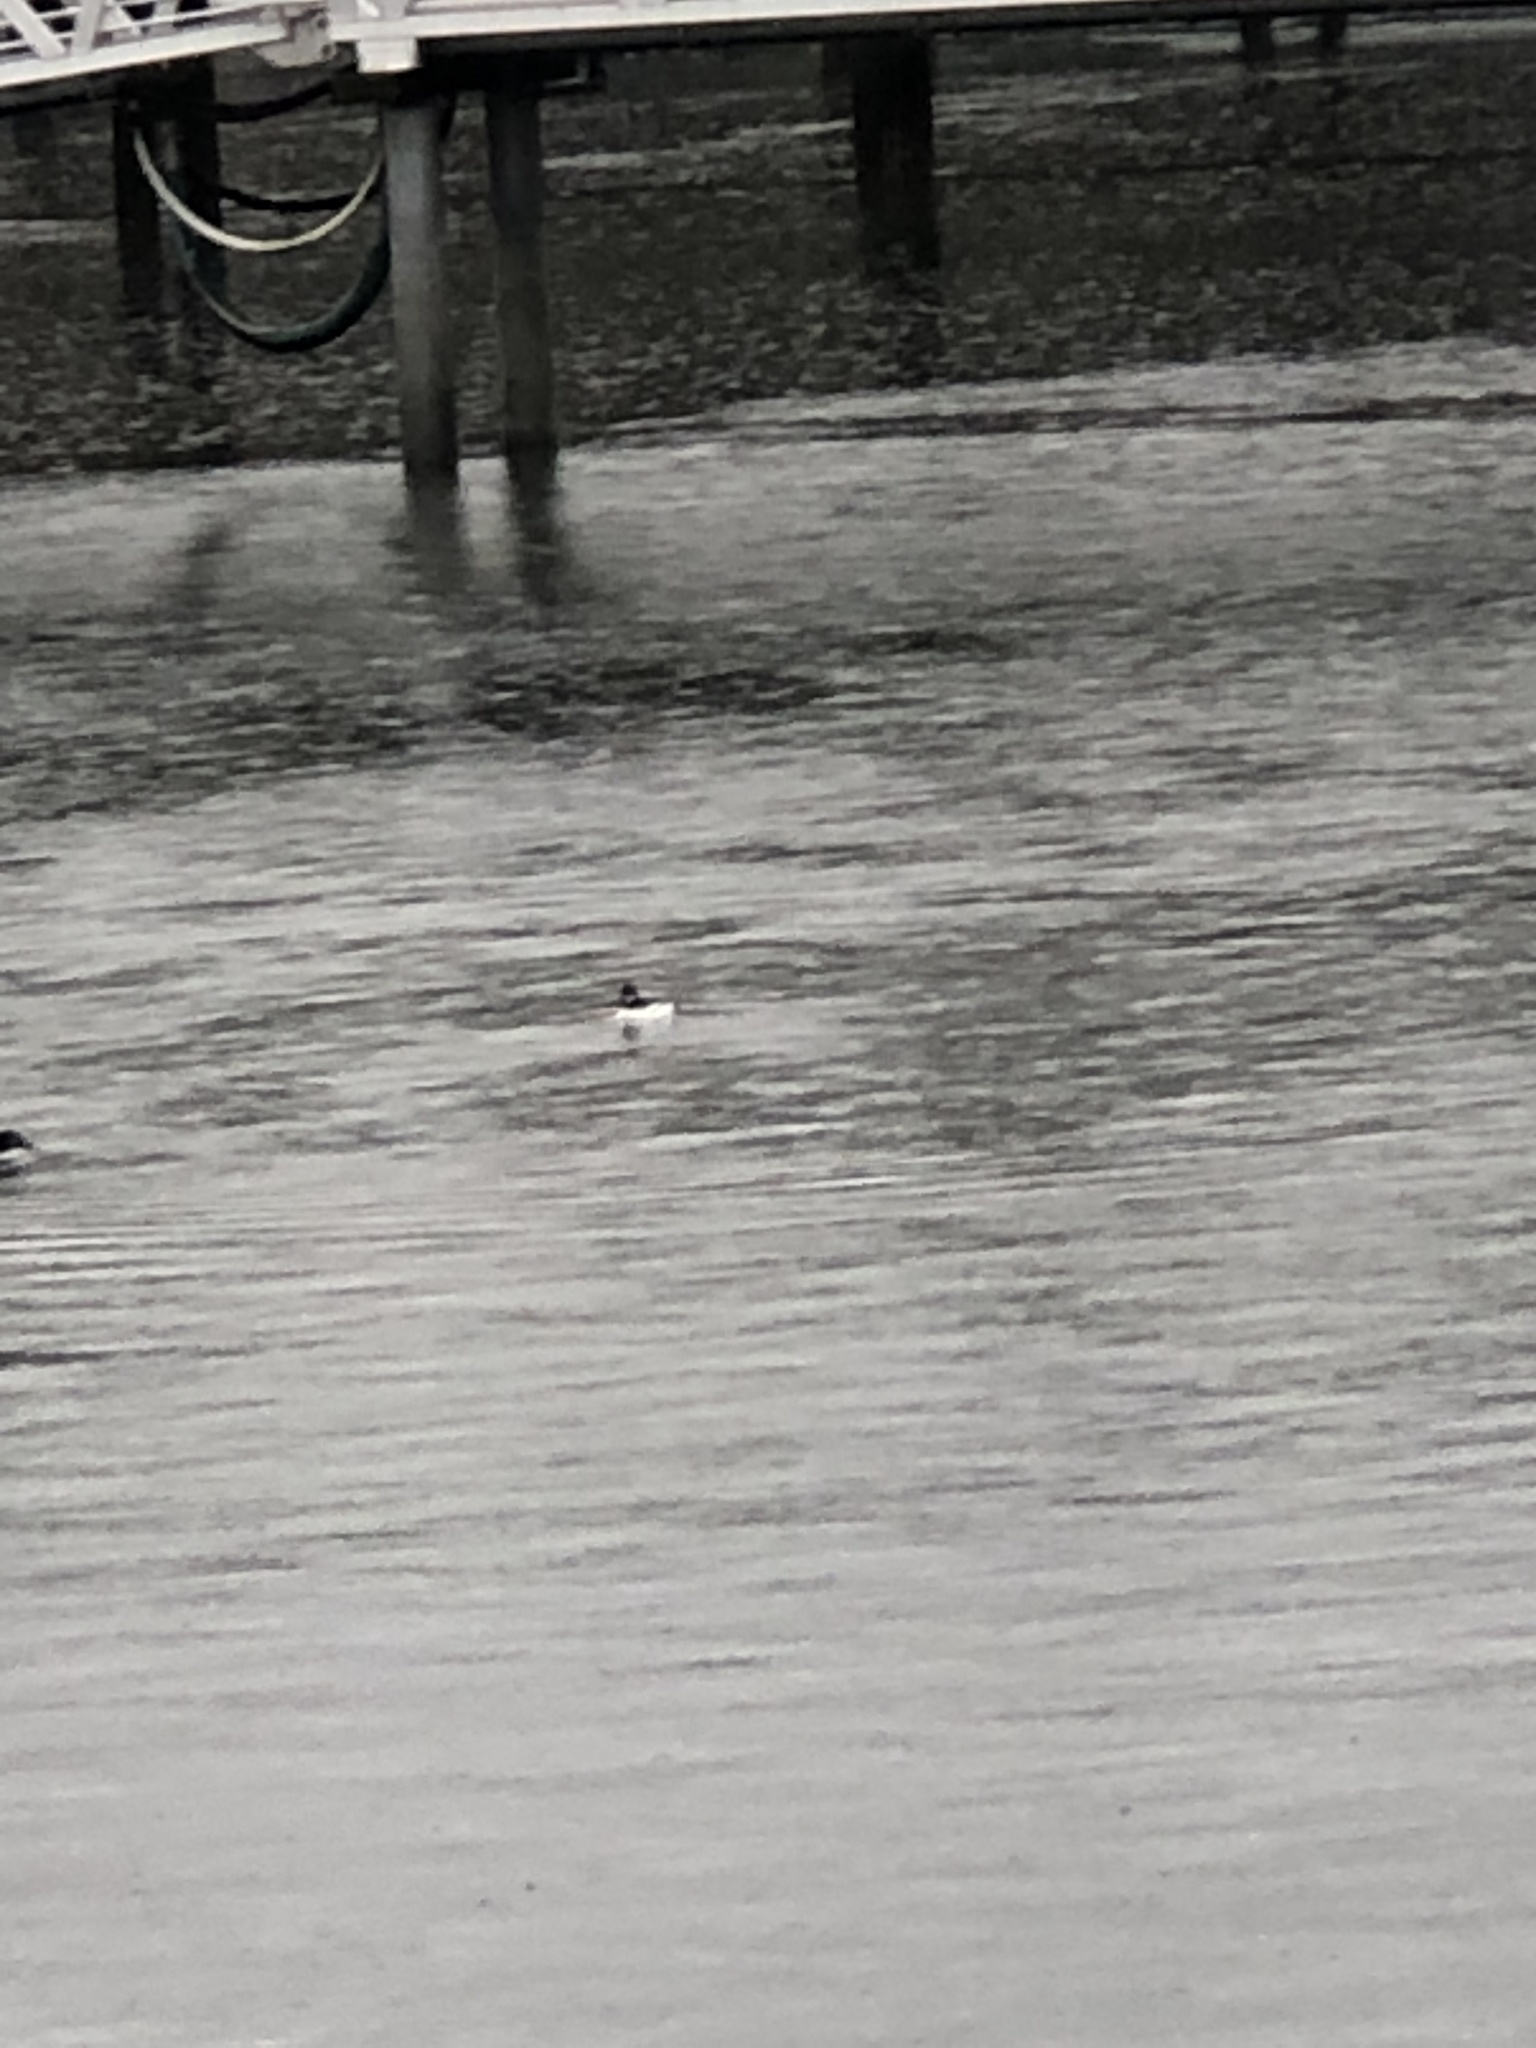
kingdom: Animalia
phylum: Chordata
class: Aves
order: Anseriformes
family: Anatidae
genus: Bucephala
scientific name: Bucephala clangula
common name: Common goldeneye
